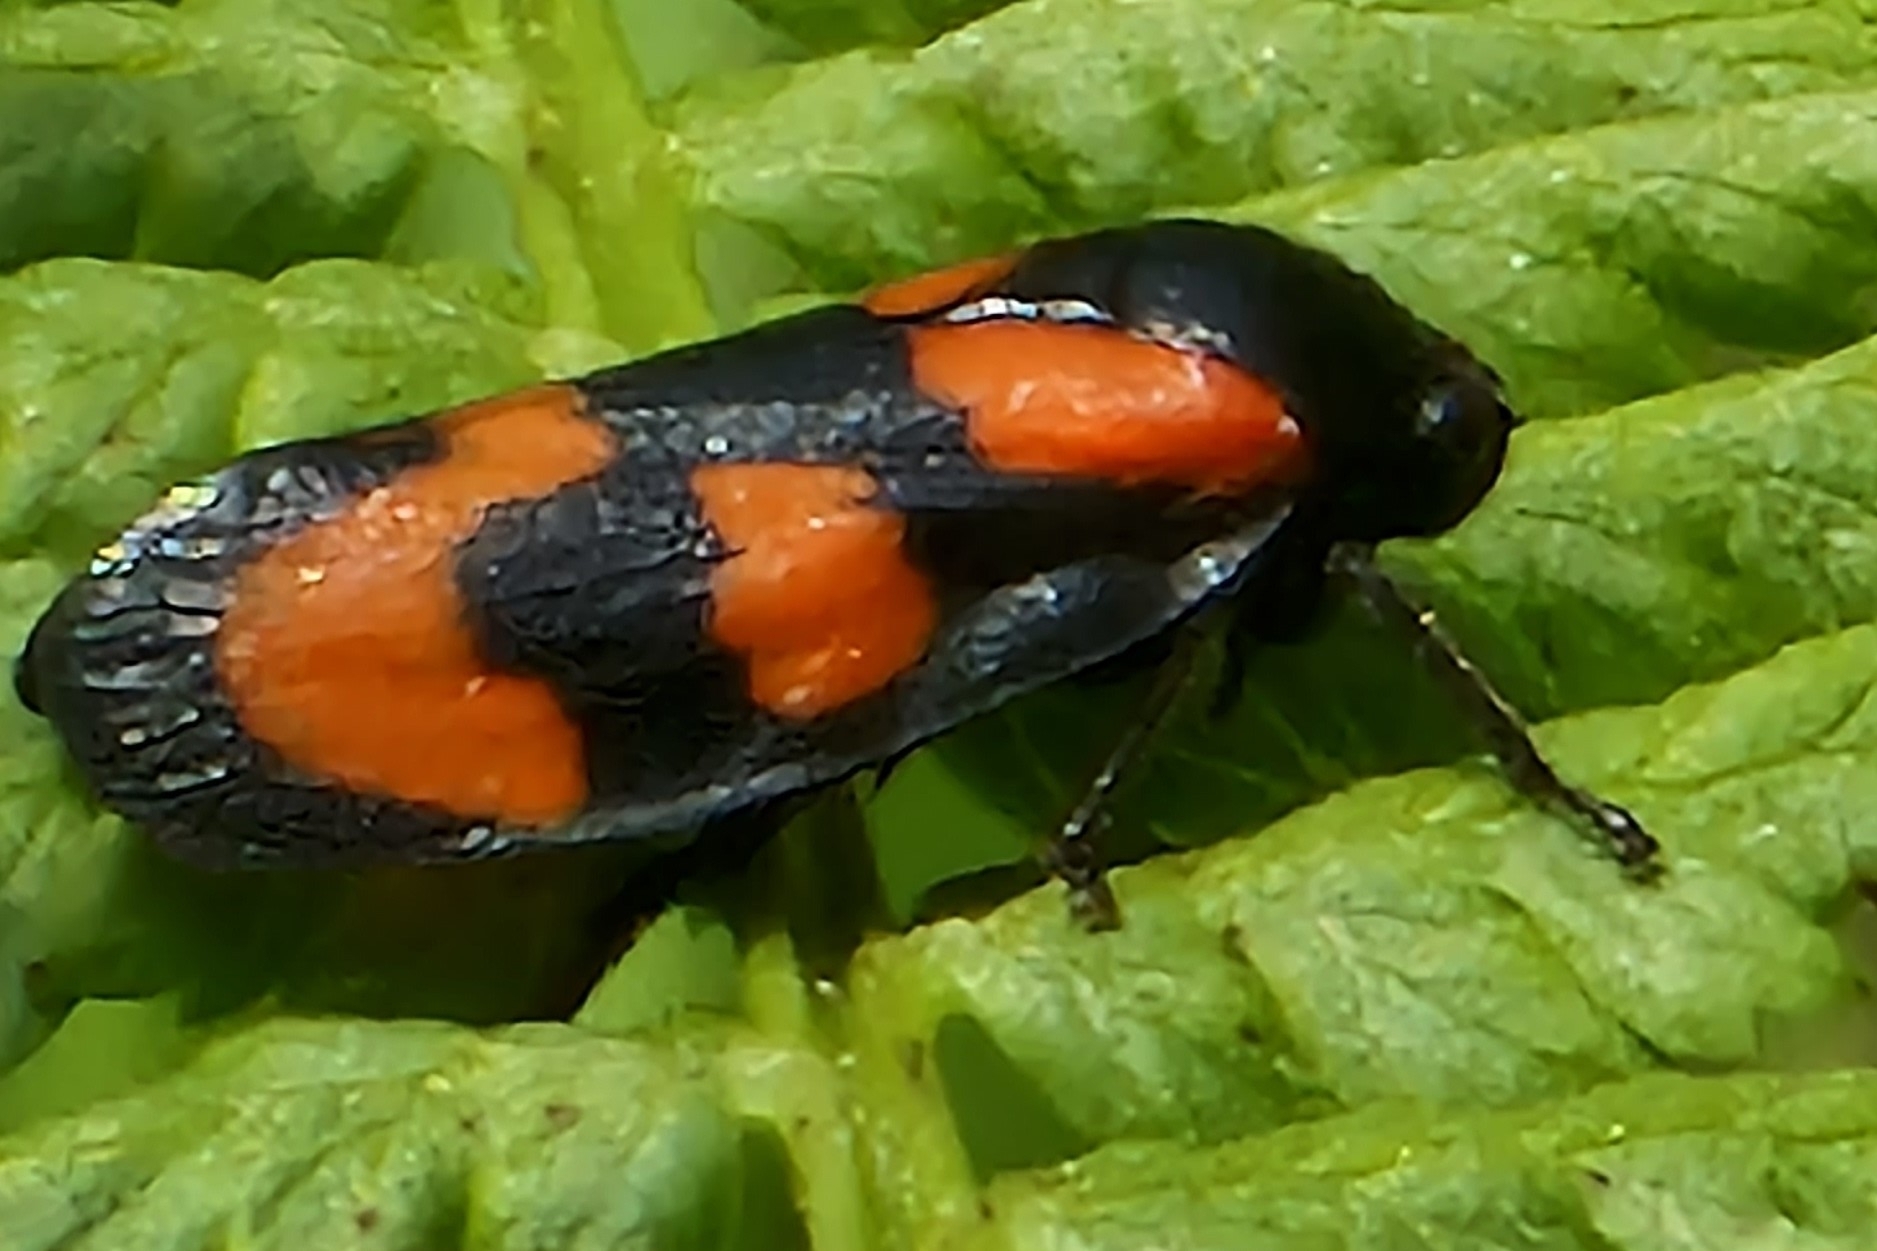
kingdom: Animalia
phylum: Arthropoda
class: Insecta
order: Hemiptera
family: Cercopidae
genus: Cercopis
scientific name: Cercopis vulnerata
